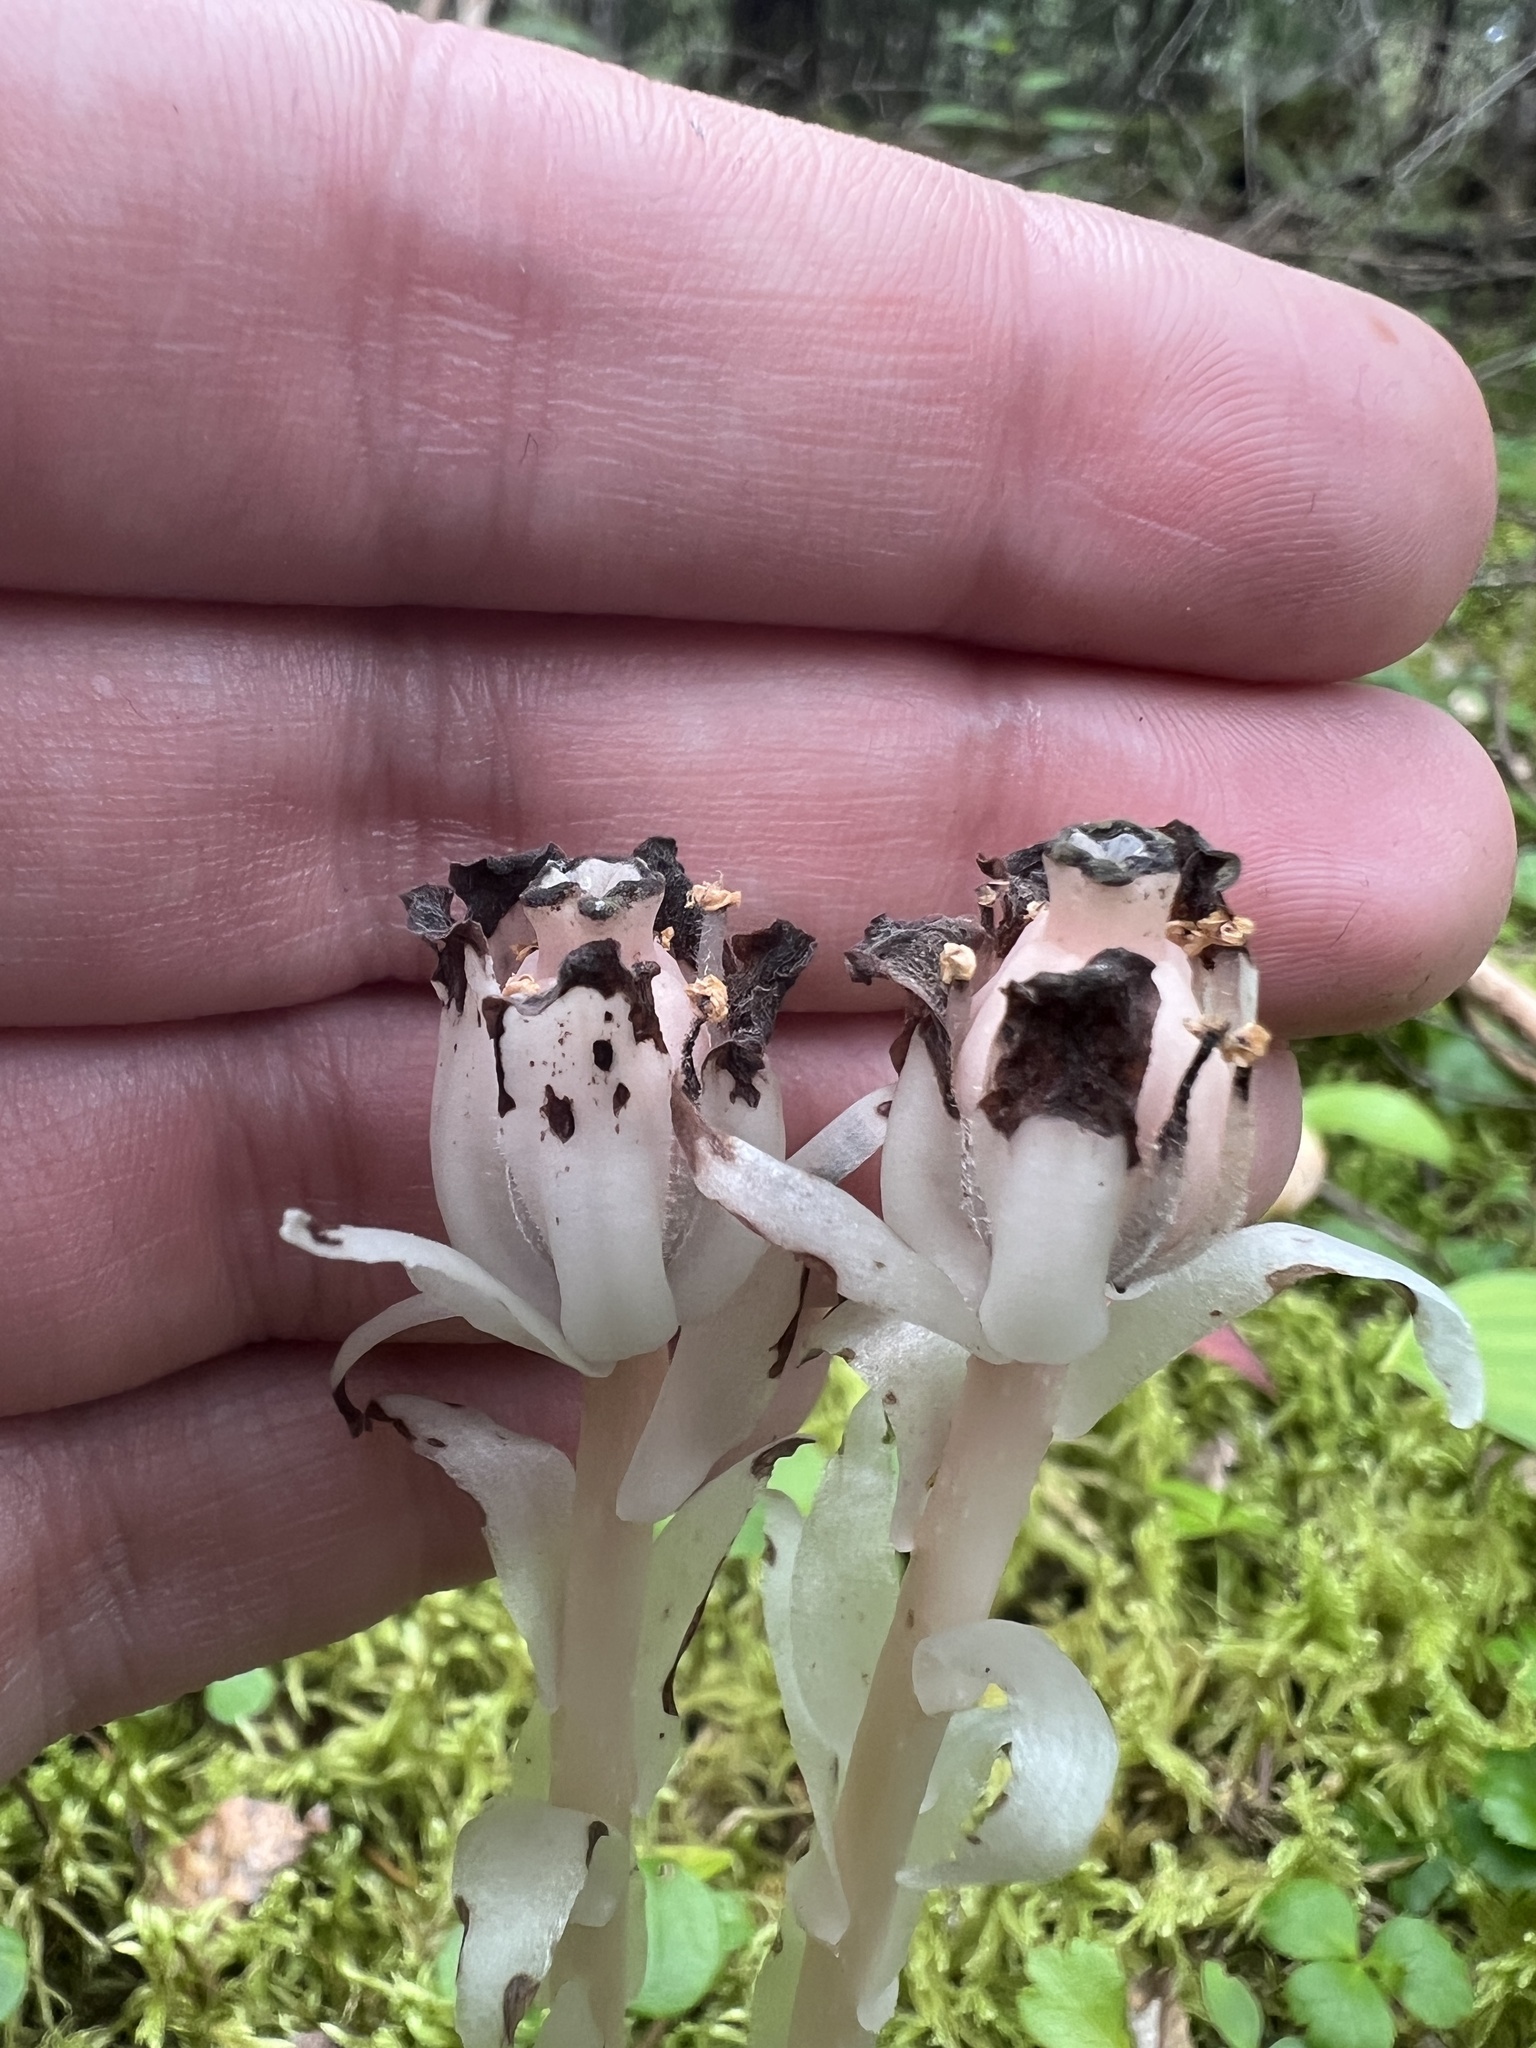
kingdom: Plantae
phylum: Tracheophyta
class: Magnoliopsida
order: Ericales
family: Ericaceae
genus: Monotropa
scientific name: Monotropa uniflora
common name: Convulsion root
